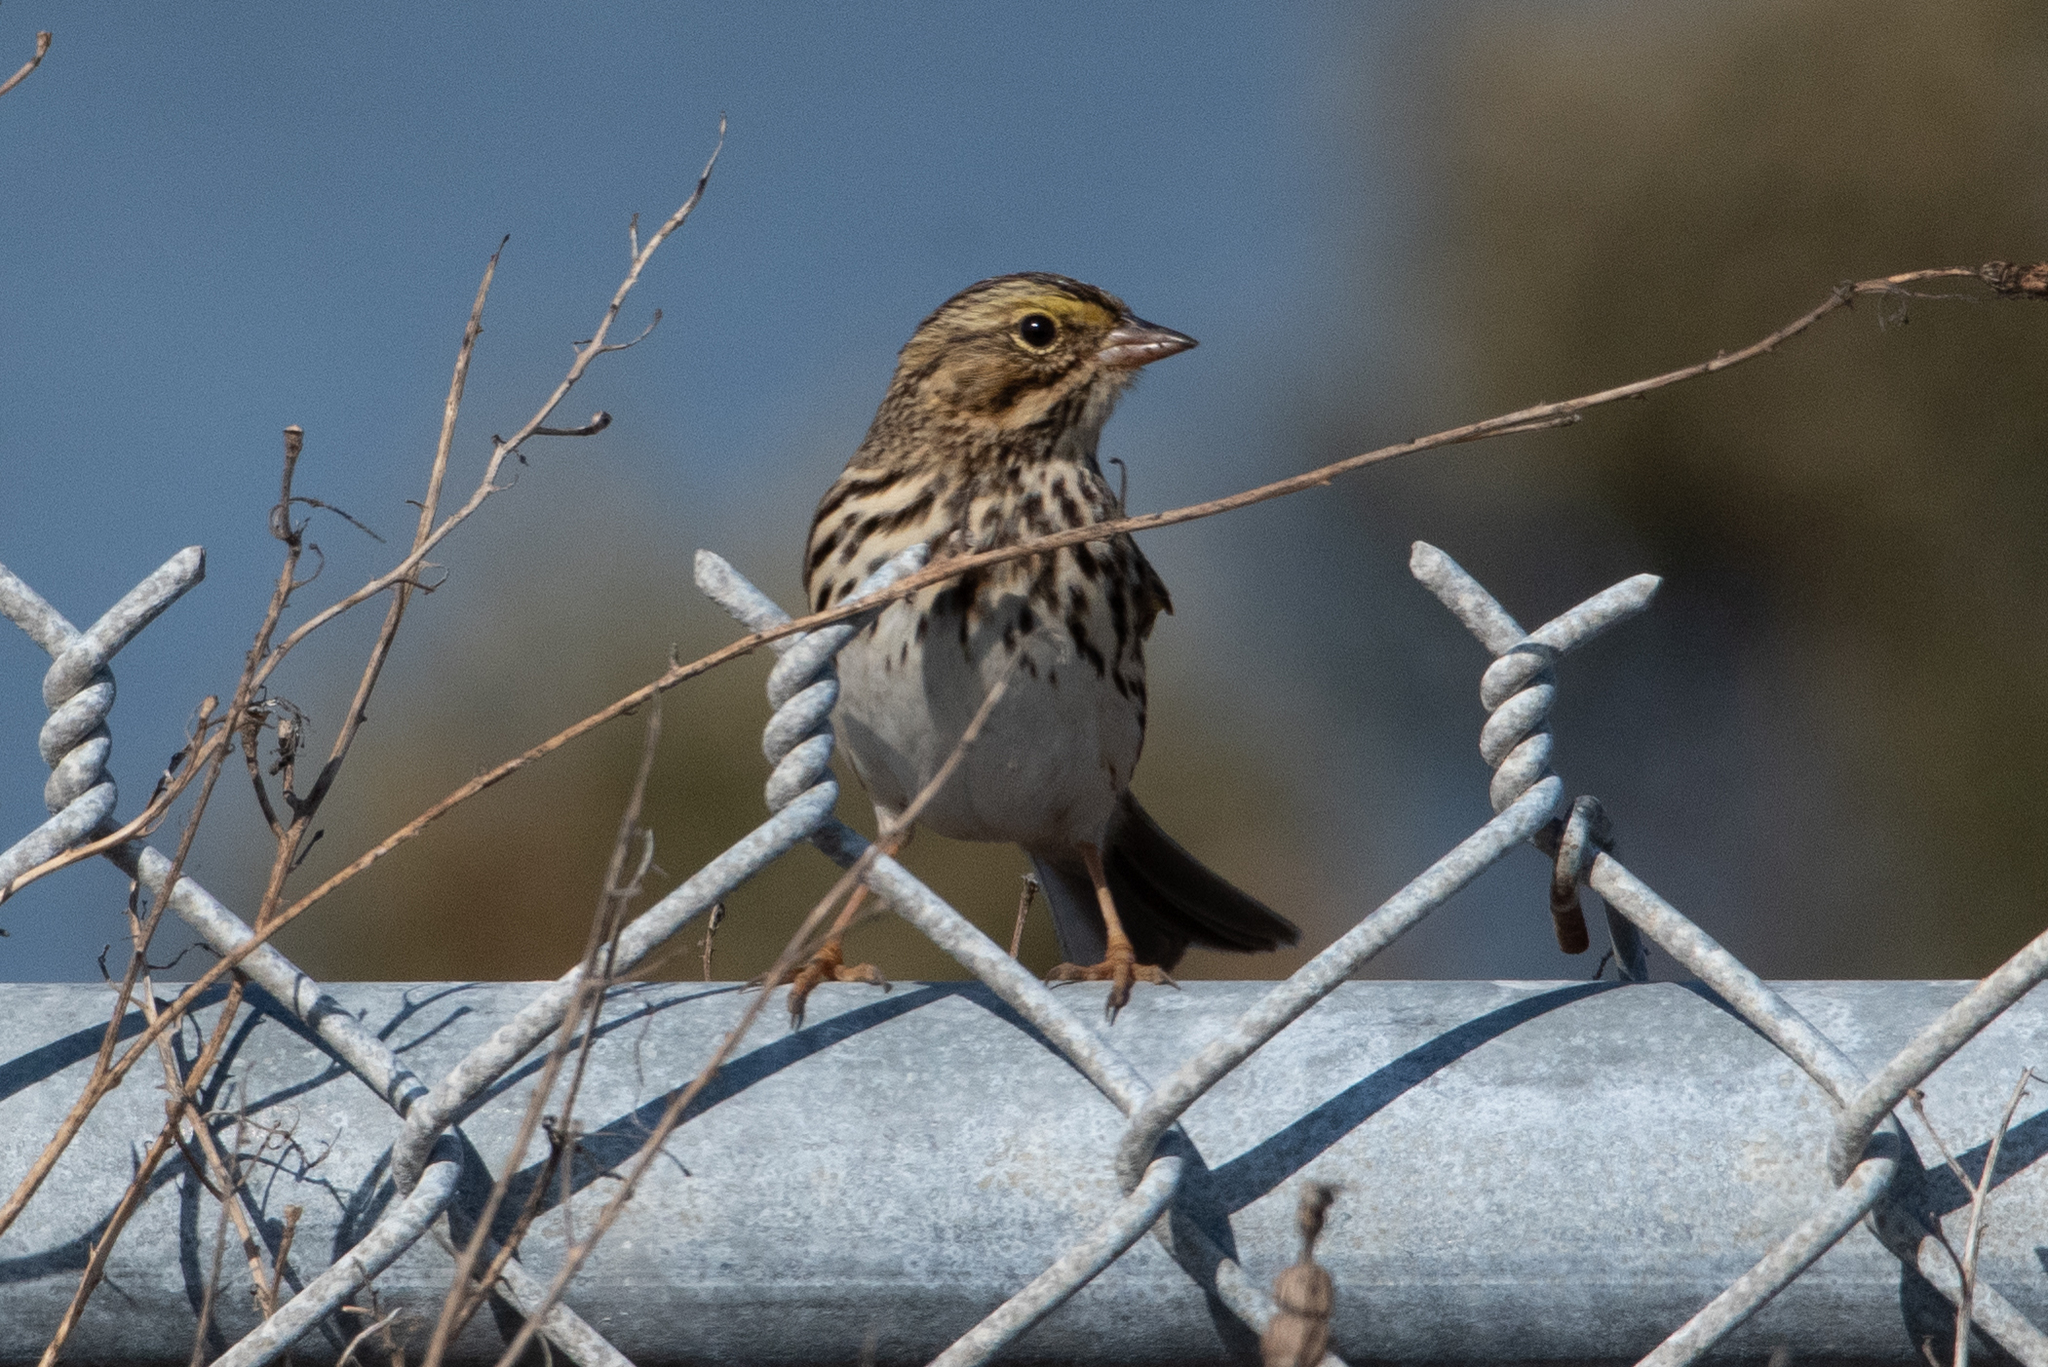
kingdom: Animalia
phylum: Chordata
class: Aves
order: Passeriformes
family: Passerellidae
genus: Passerculus
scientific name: Passerculus sandwichensis
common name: Savannah sparrow
